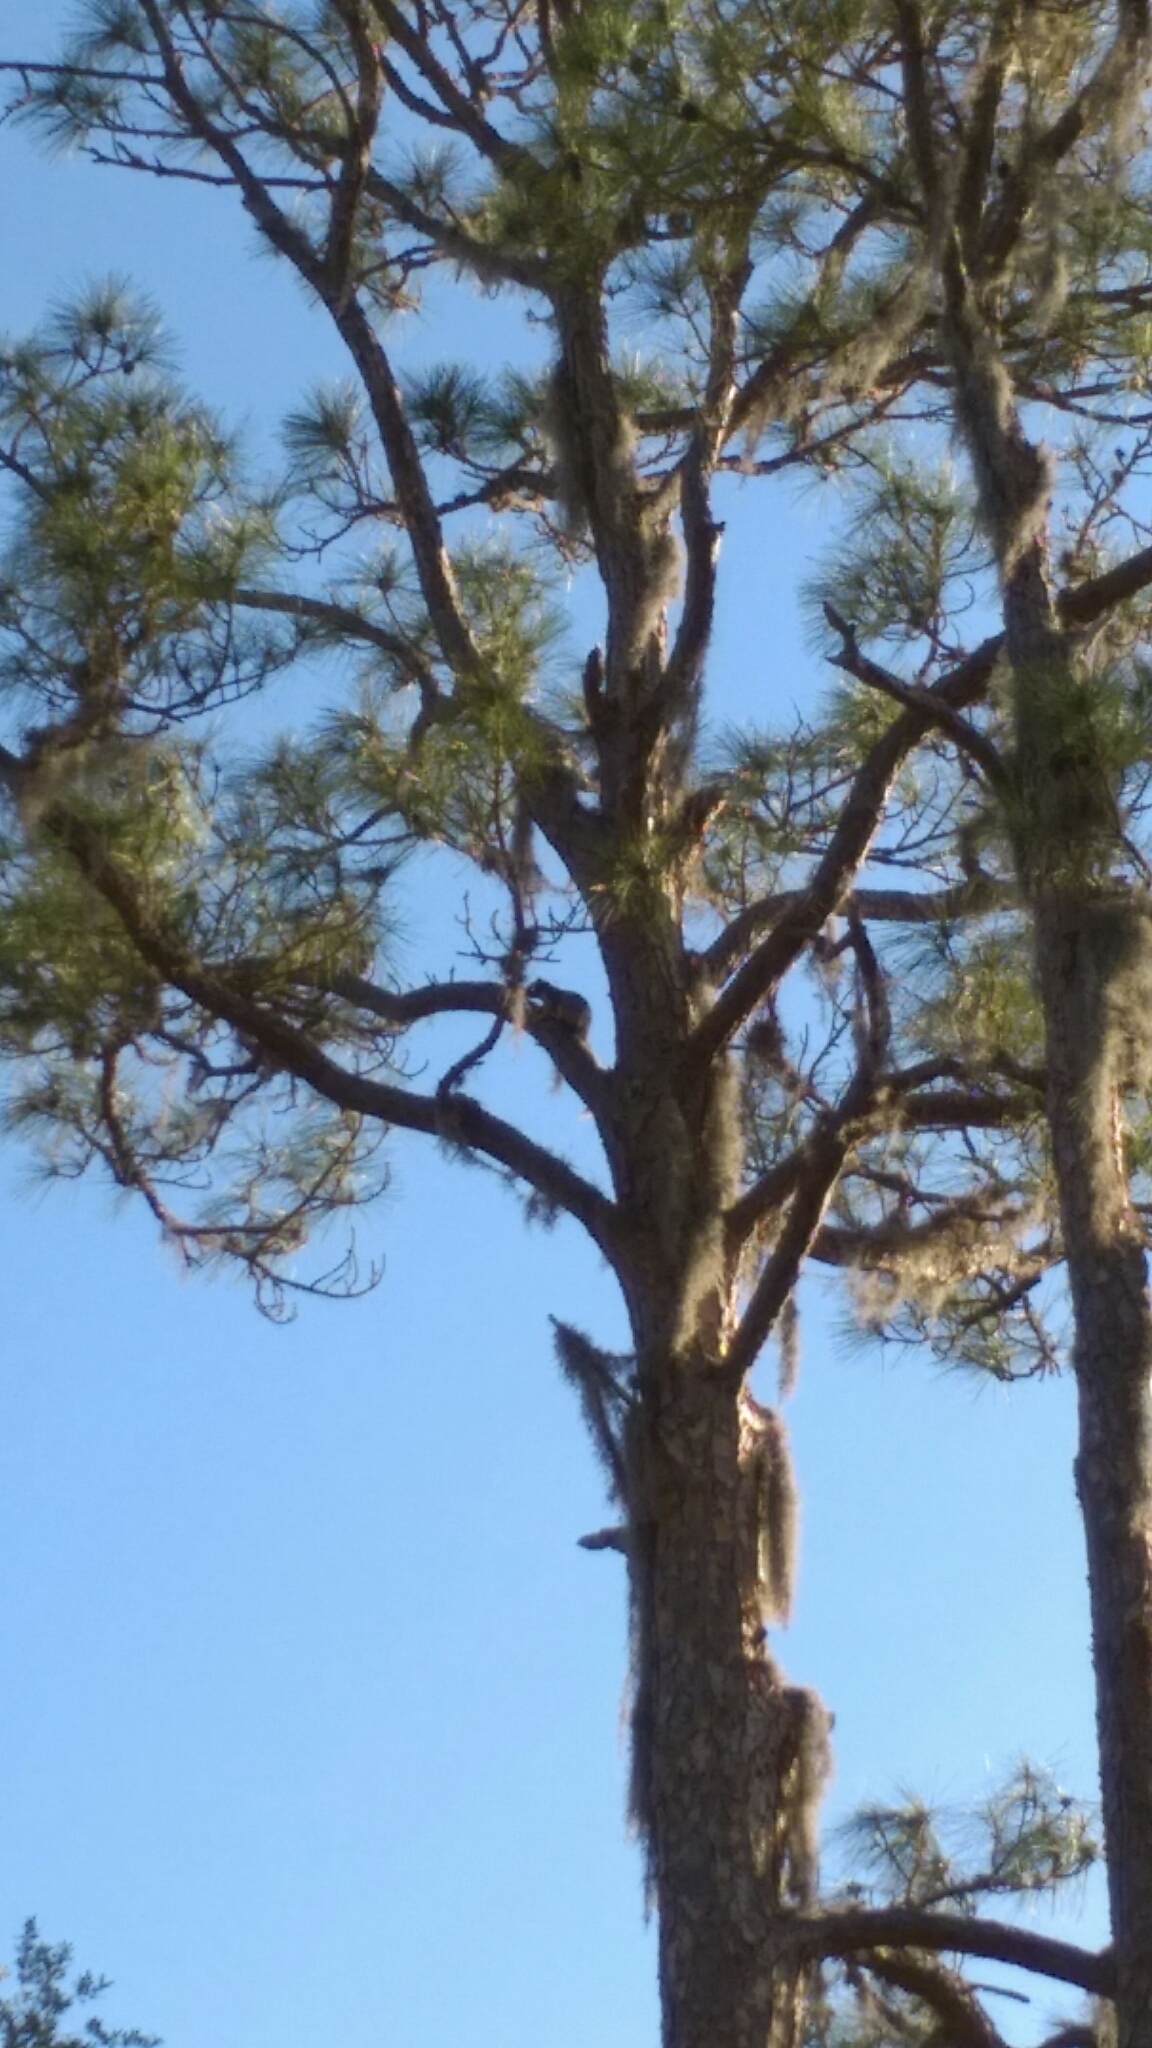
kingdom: Animalia
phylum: Chordata
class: Mammalia
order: Rodentia
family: Sciuridae
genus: Sciurus
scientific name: Sciurus niger
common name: Fox squirrel
